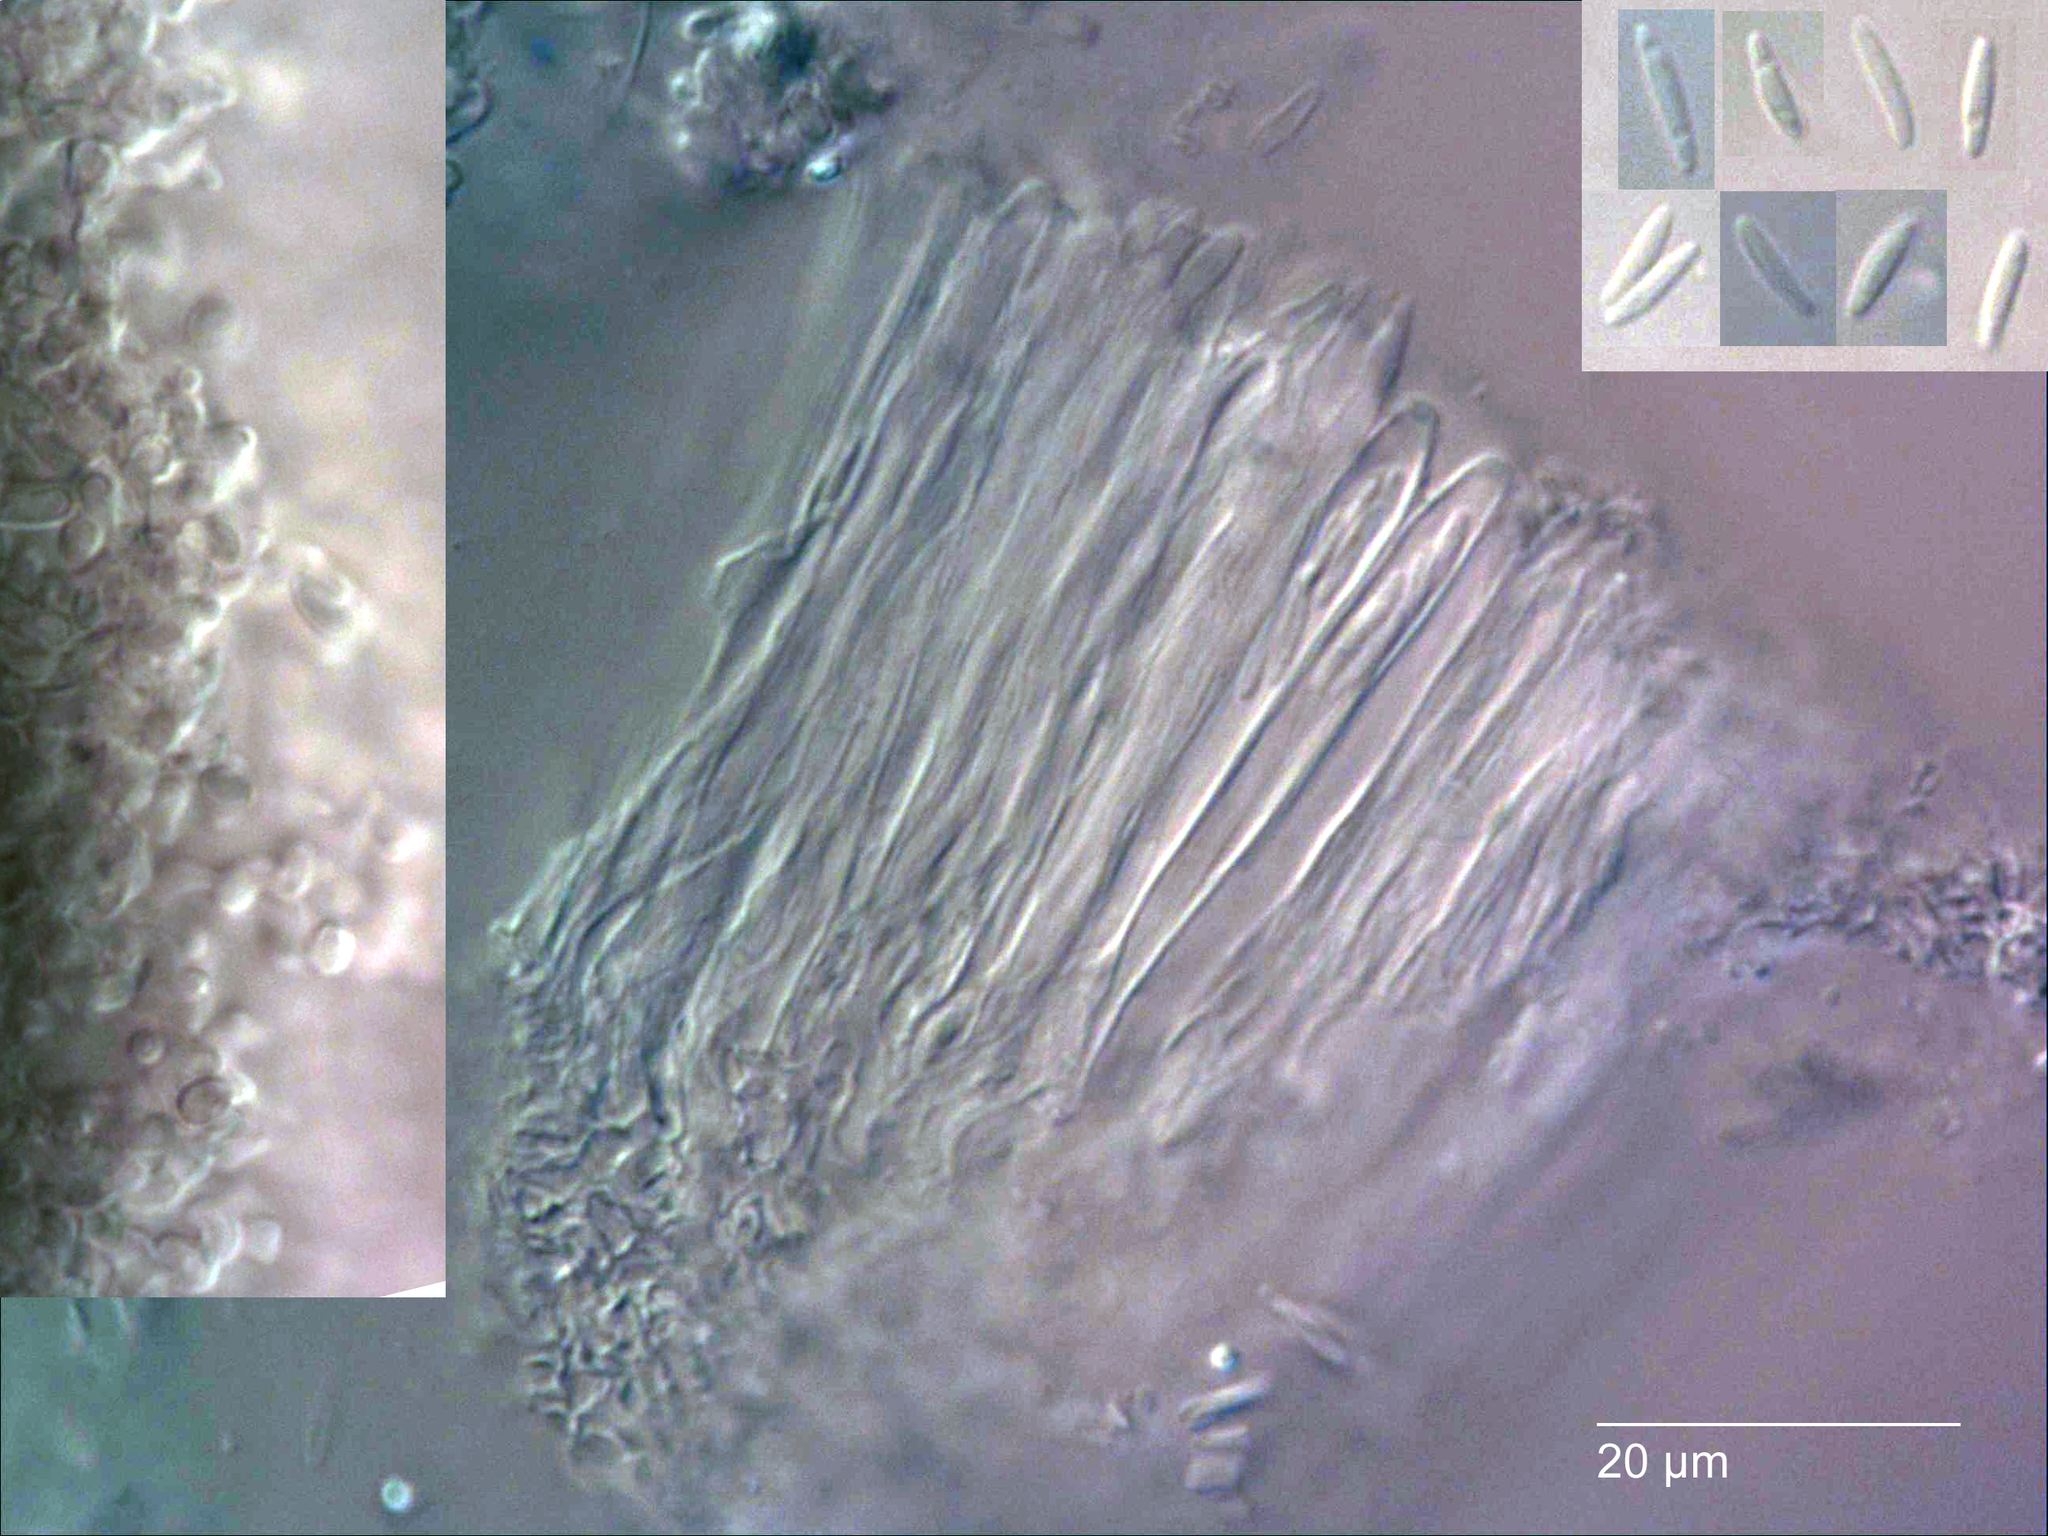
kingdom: Fungi
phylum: Ascomycota
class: Leotiomycetes
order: Helotiales
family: Chlorociboriaceae
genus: Chlorociboria
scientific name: Chlorociboria novae-zelandiae
